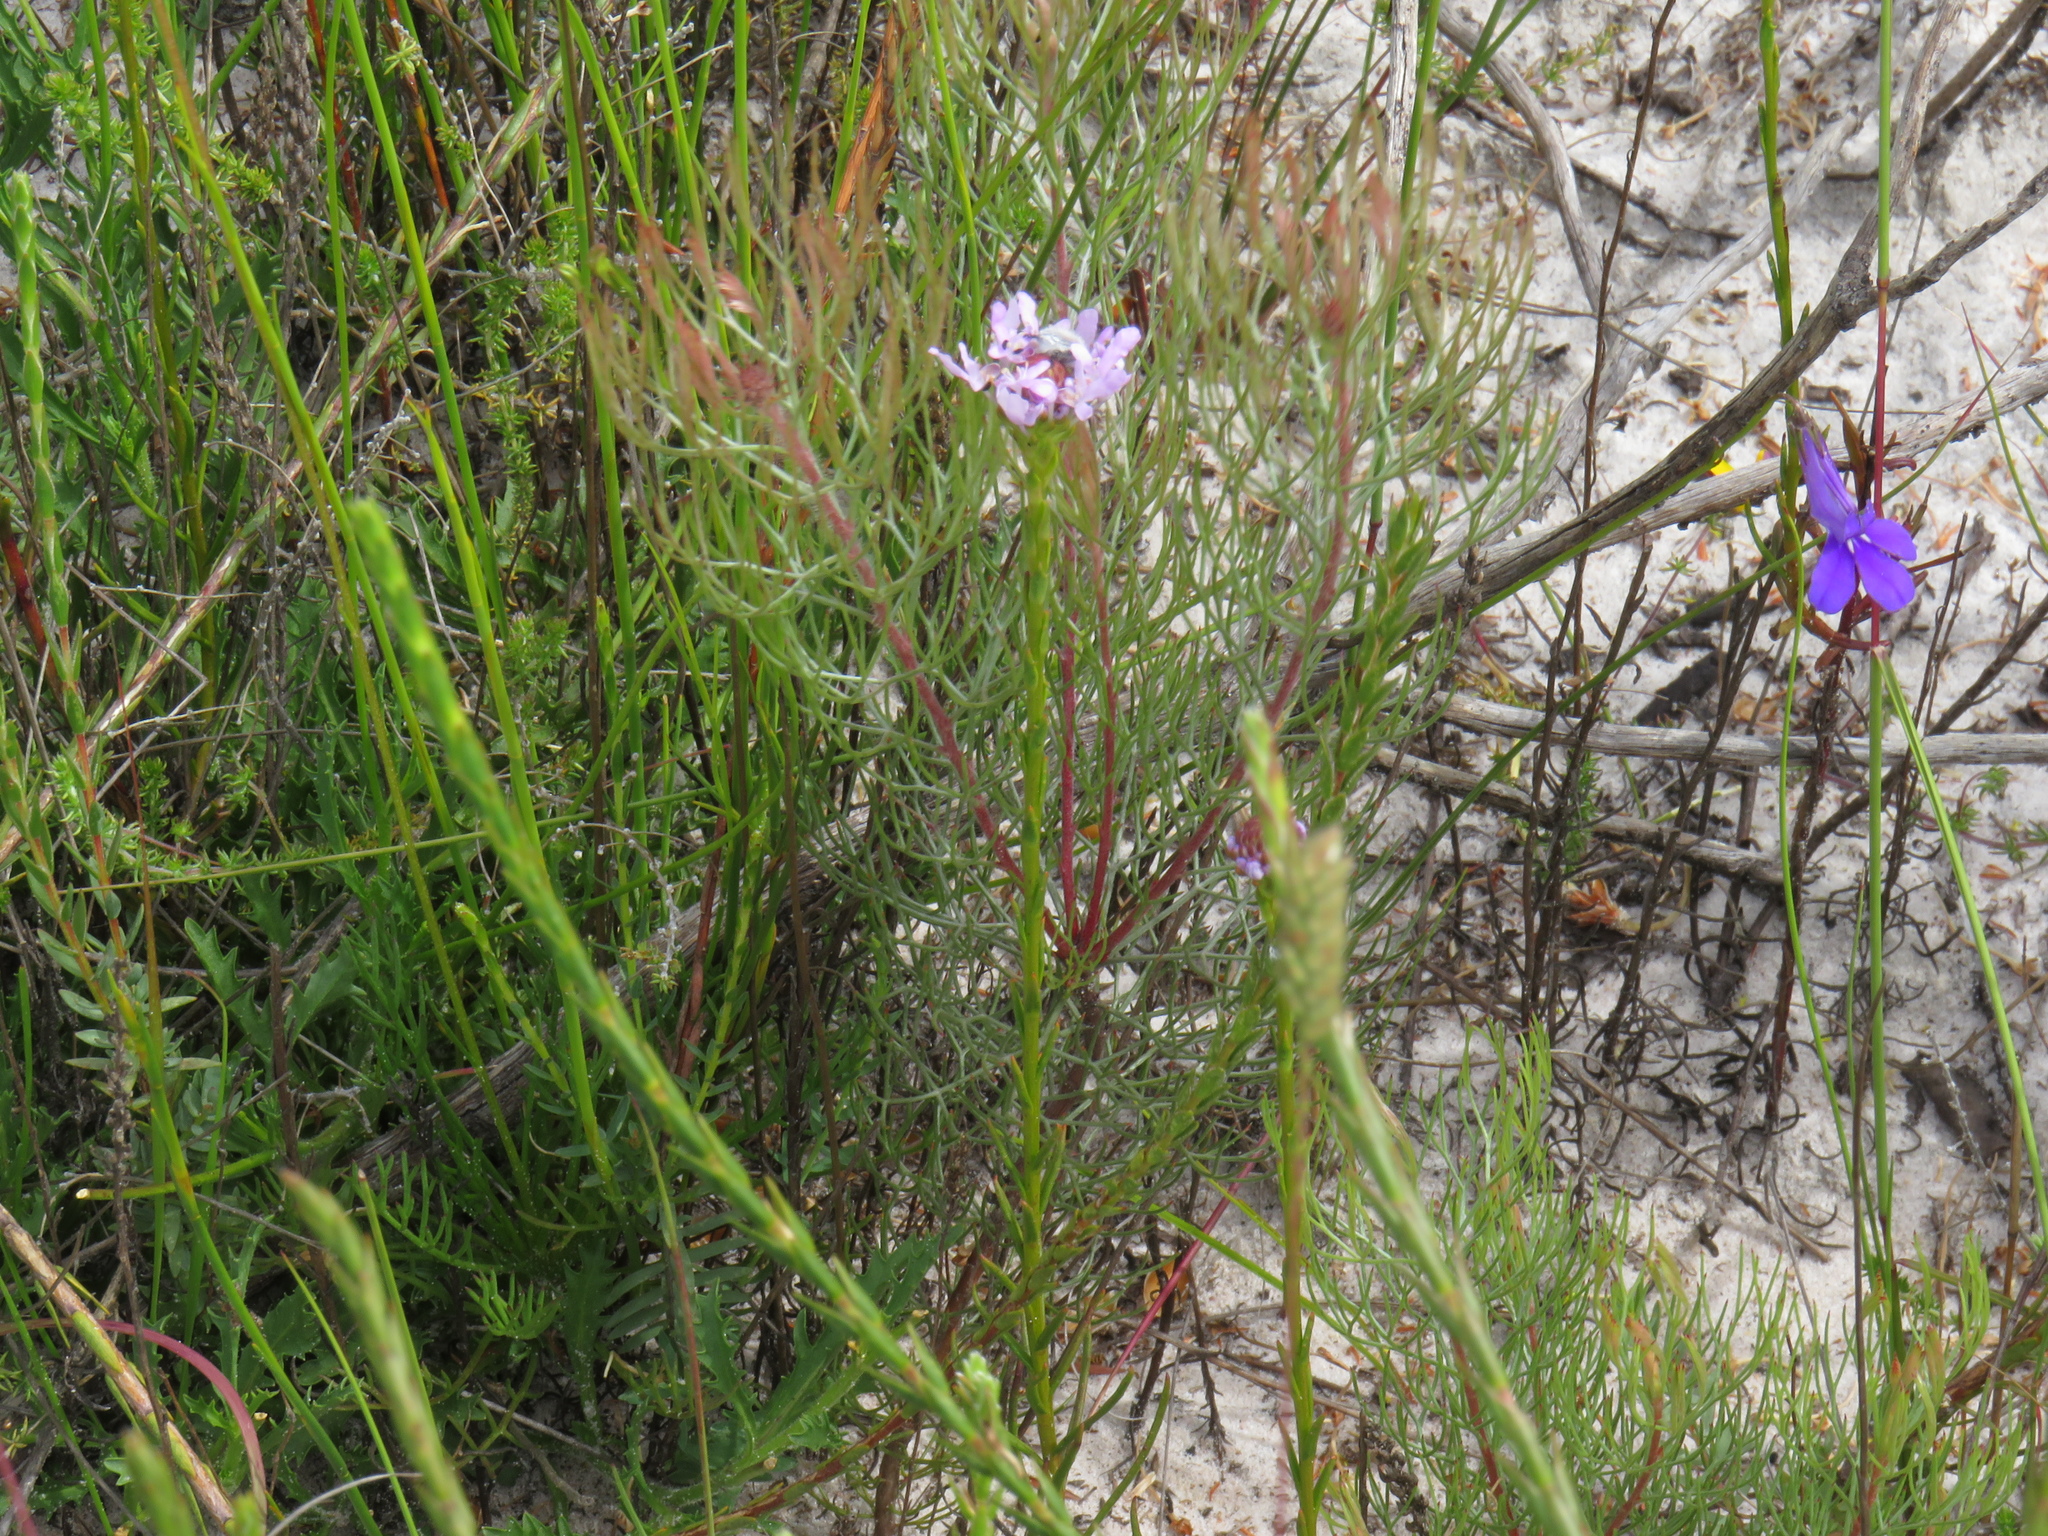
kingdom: Plantae
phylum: Tracheophyta
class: Magnoliopsida
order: Proteales
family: Proteaceae
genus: Serruria
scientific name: Serruria fasciflora
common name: Common pin spiderhead
